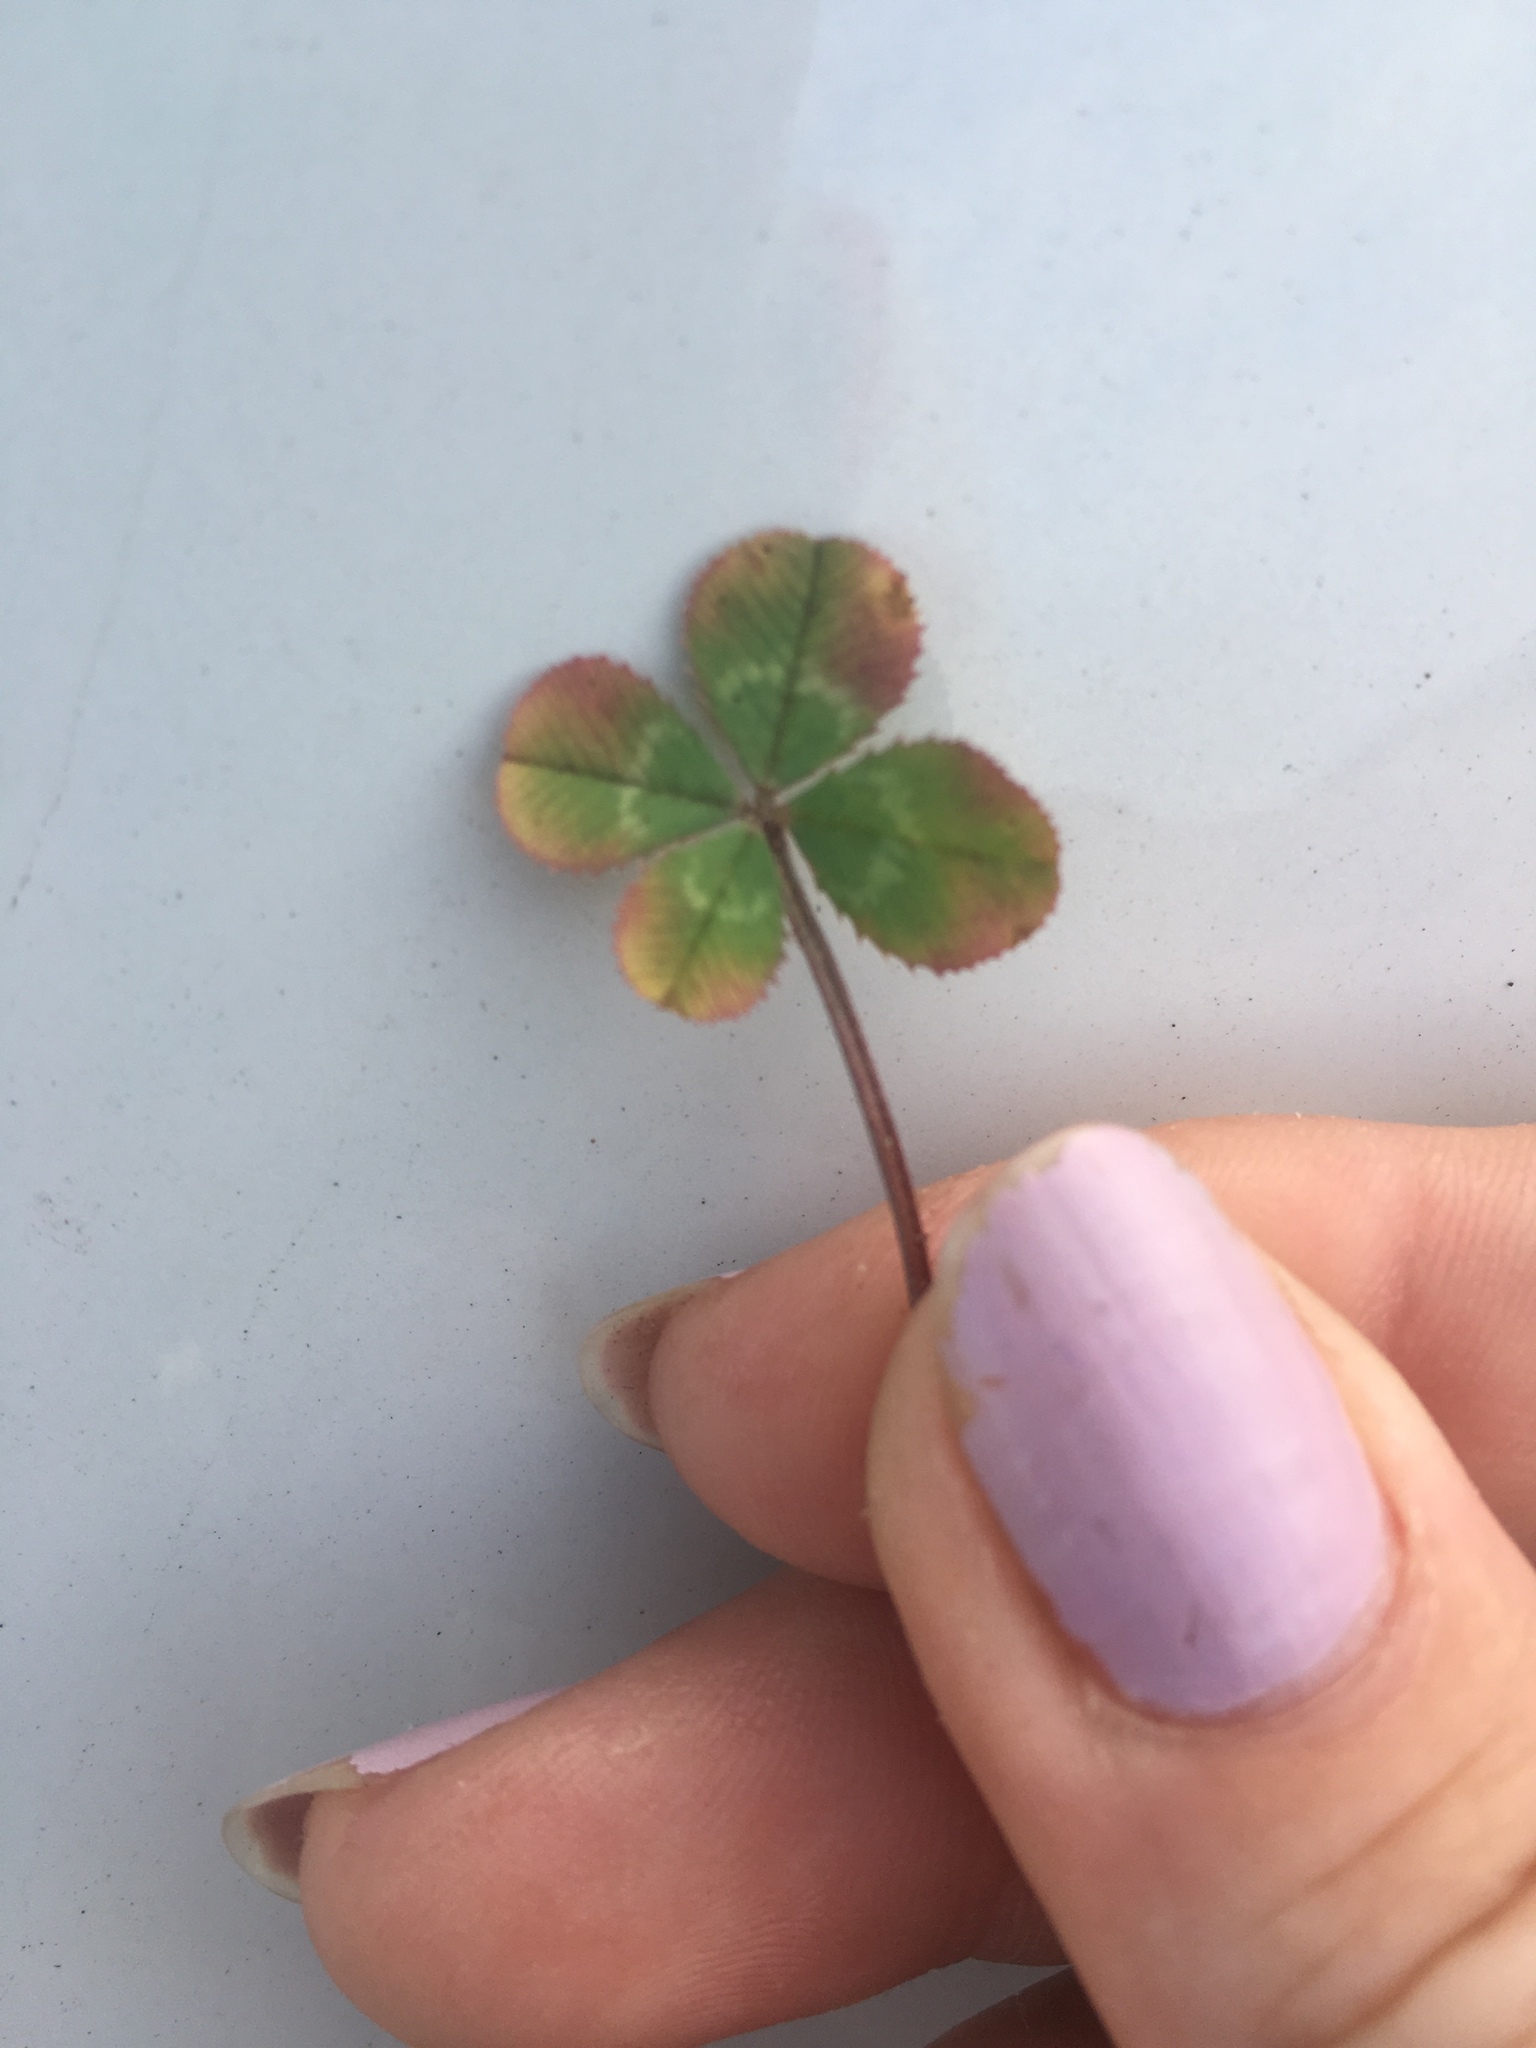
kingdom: Plantae
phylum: Tracheophyta
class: Magnoliopsida
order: Fabales
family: Fabaceae
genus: Trifolium
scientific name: Trifolium repens
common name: White clover
